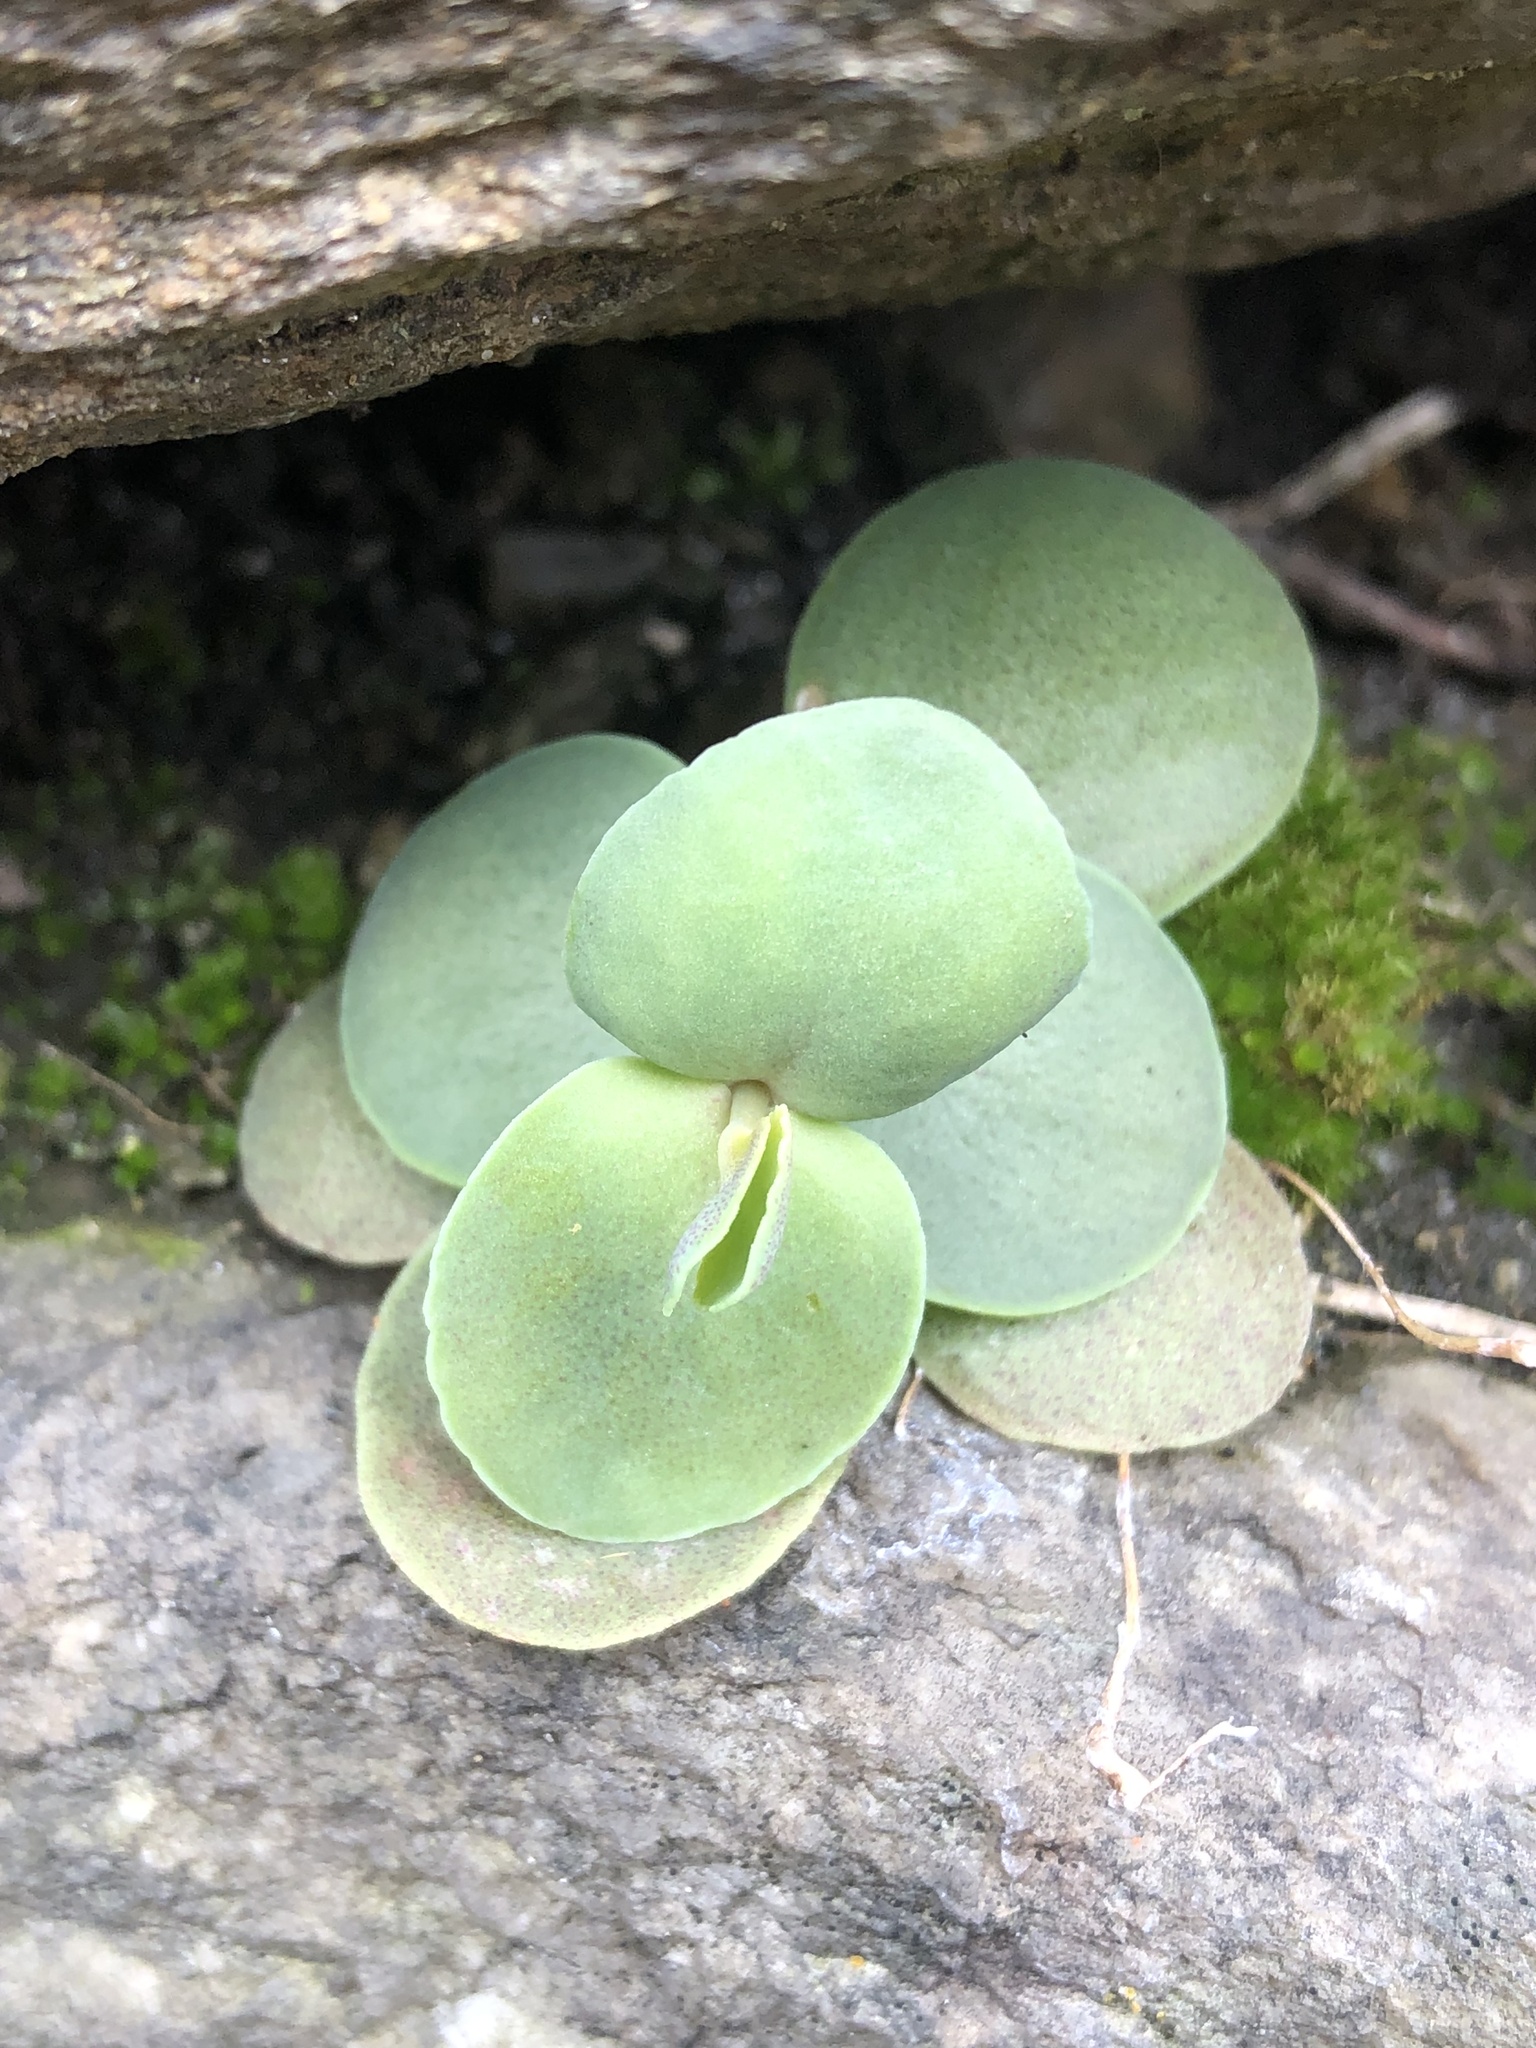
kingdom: Plantae
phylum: Tracheophyta
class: Magnoliopsida
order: Saxifragales
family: Crassulaceae
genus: Hylotelephium
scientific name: Hylotelephium maximum
